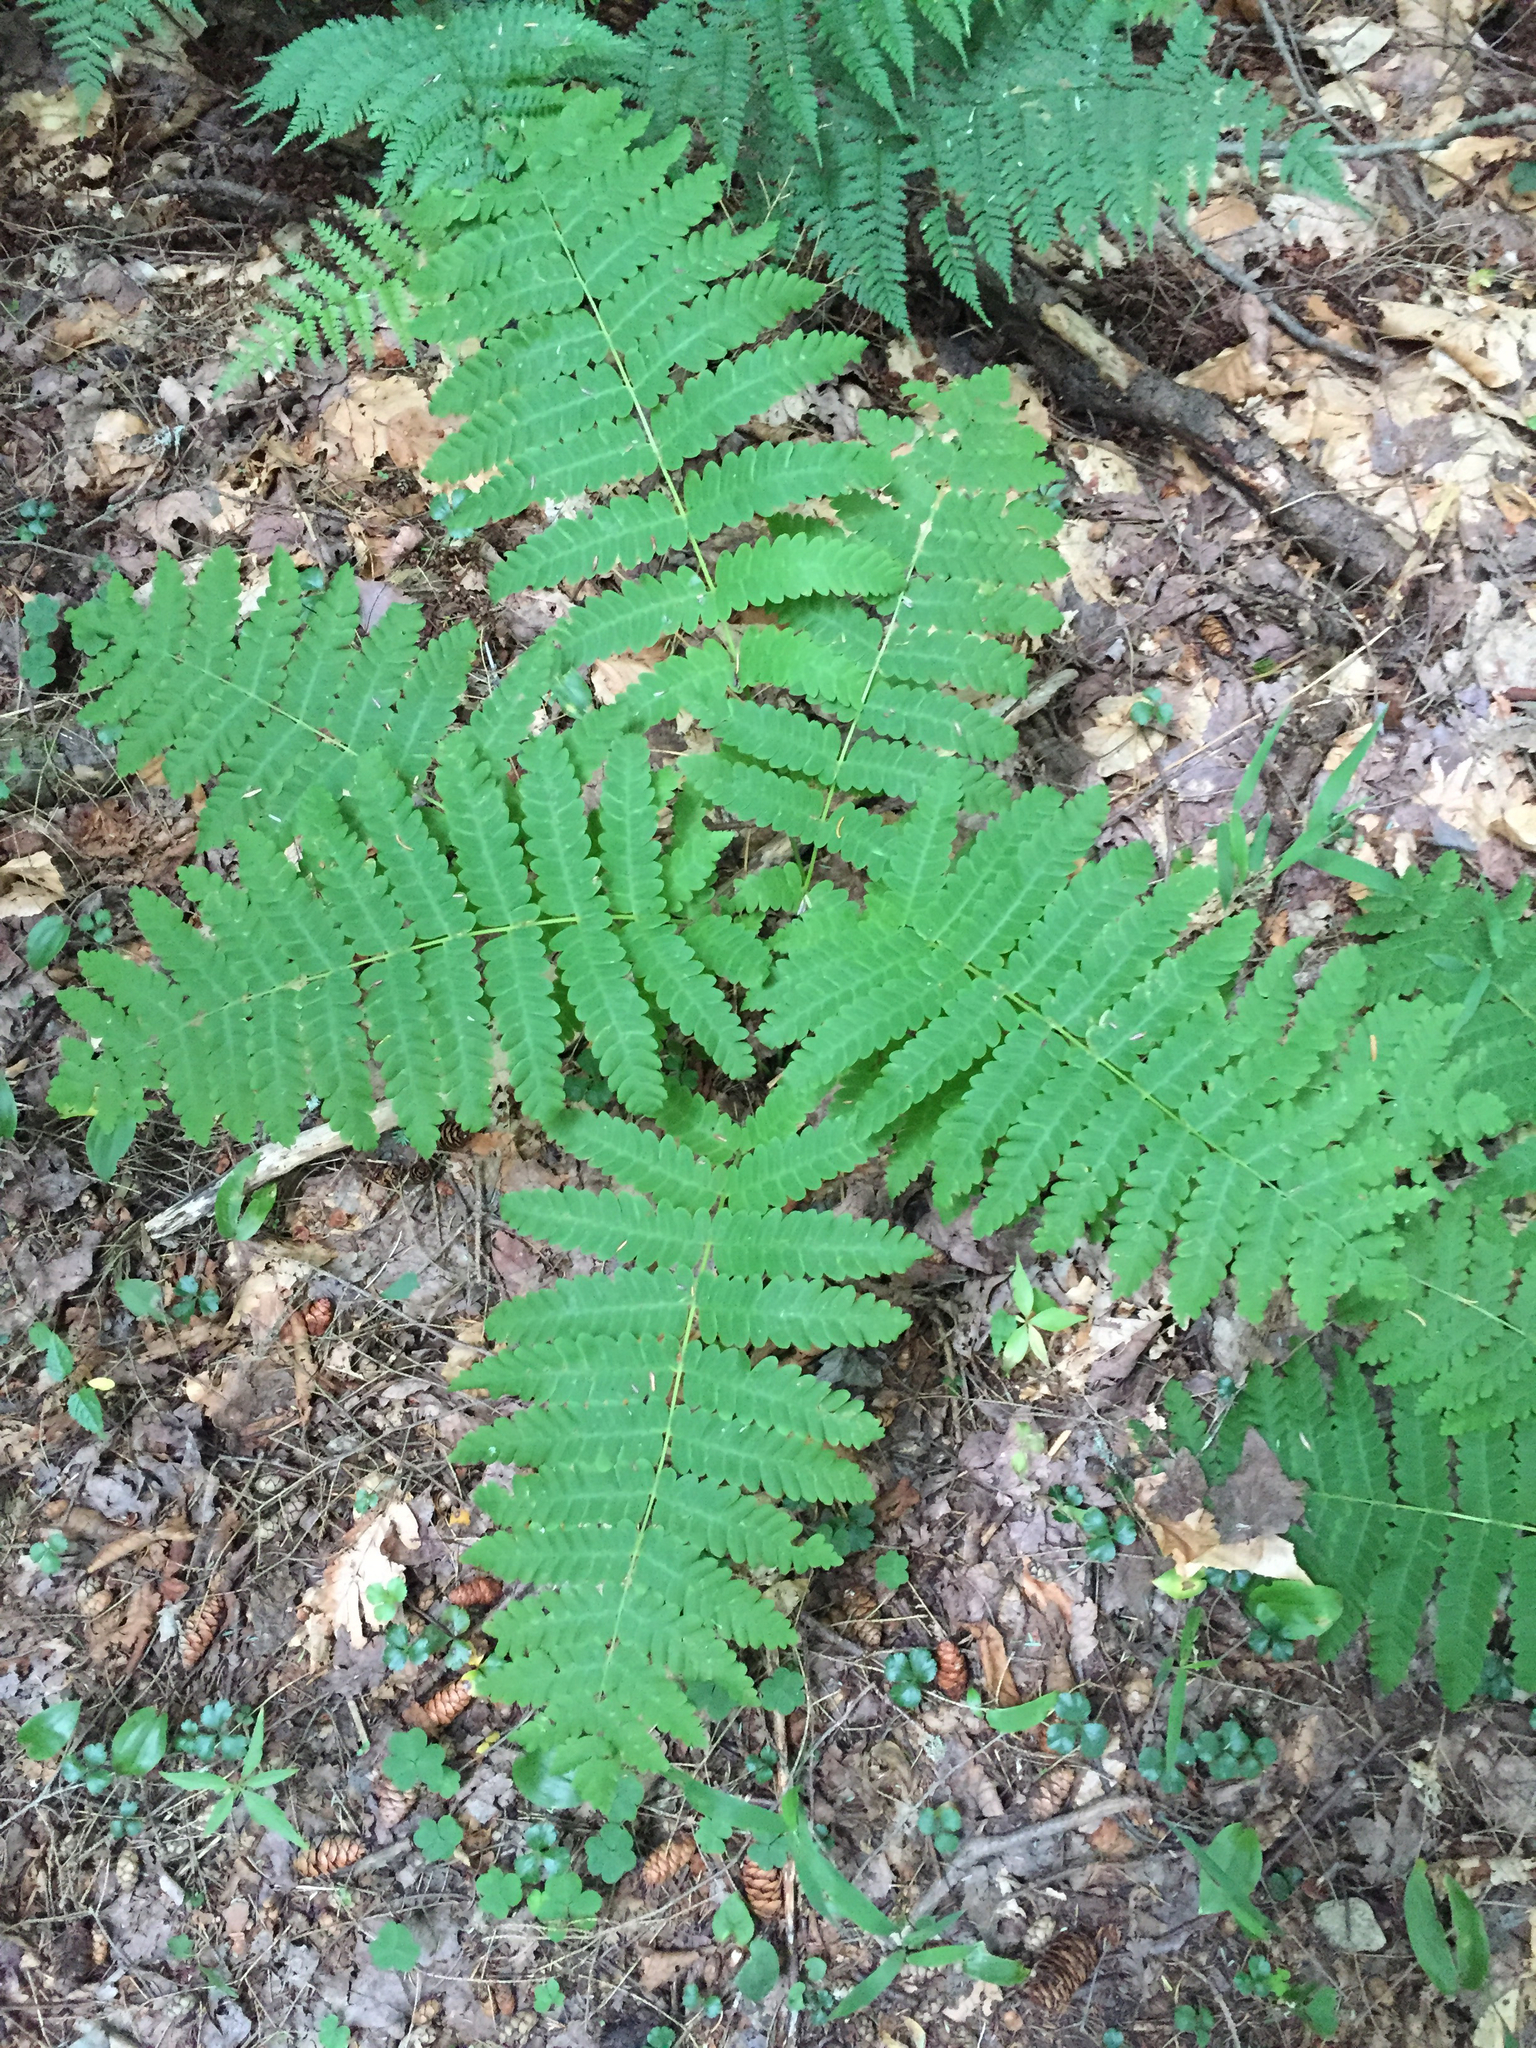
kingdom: Plantae
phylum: Tracheophyta
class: Polypodiopsida
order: Osmundales
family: Osmundaceae
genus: Claytosmunda
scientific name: Claytosmunda claytoniana
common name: Clayton's fern
